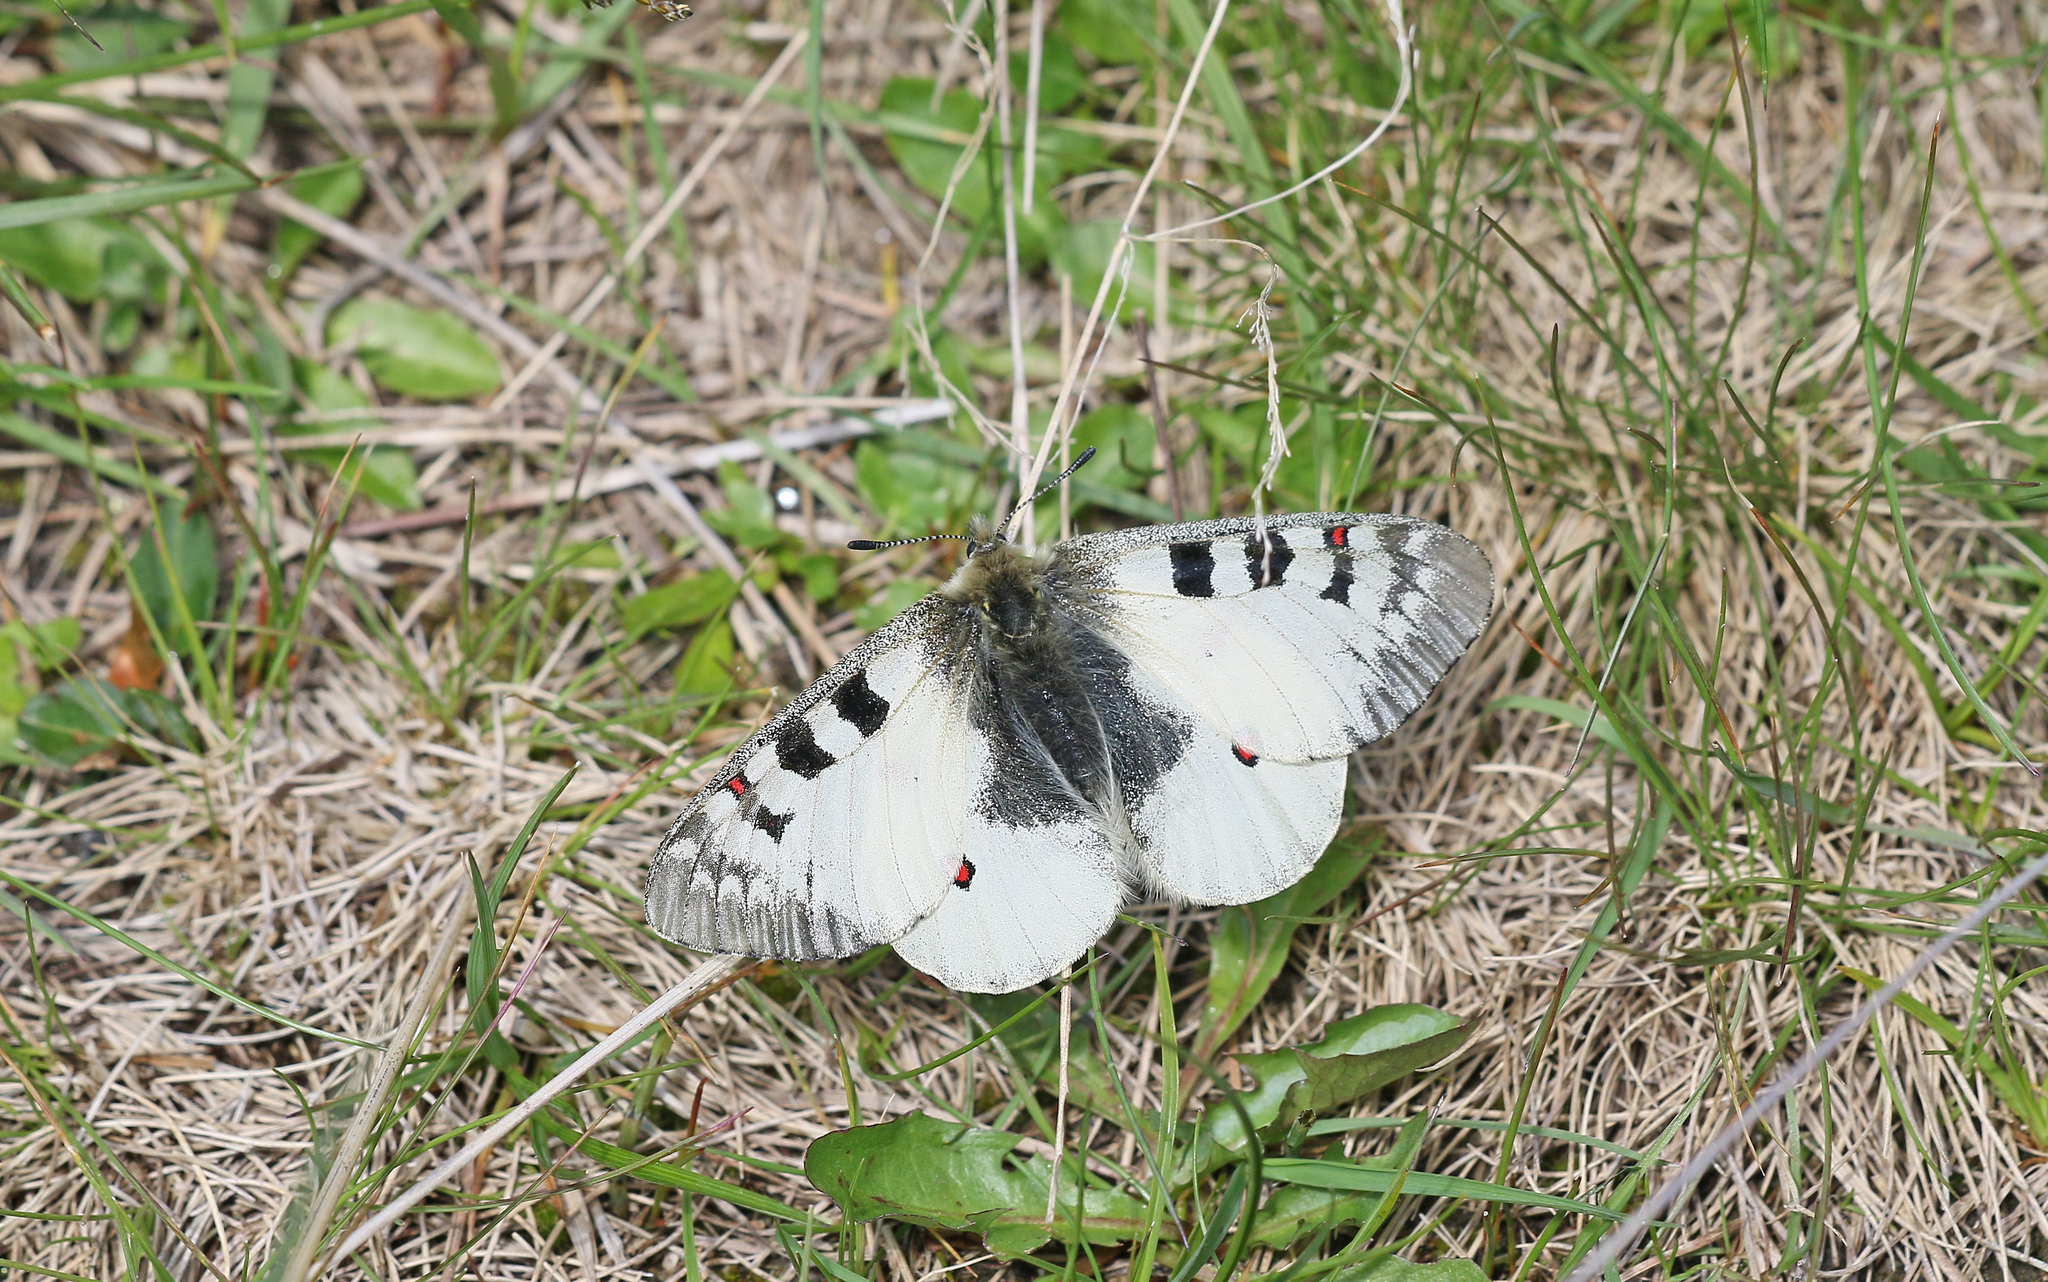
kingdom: Animalia
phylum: Arthropoda
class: Insecta
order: Lepidoptera
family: Papilionidae
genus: Parnassius
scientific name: Parnassius phoebus
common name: Small apollo
